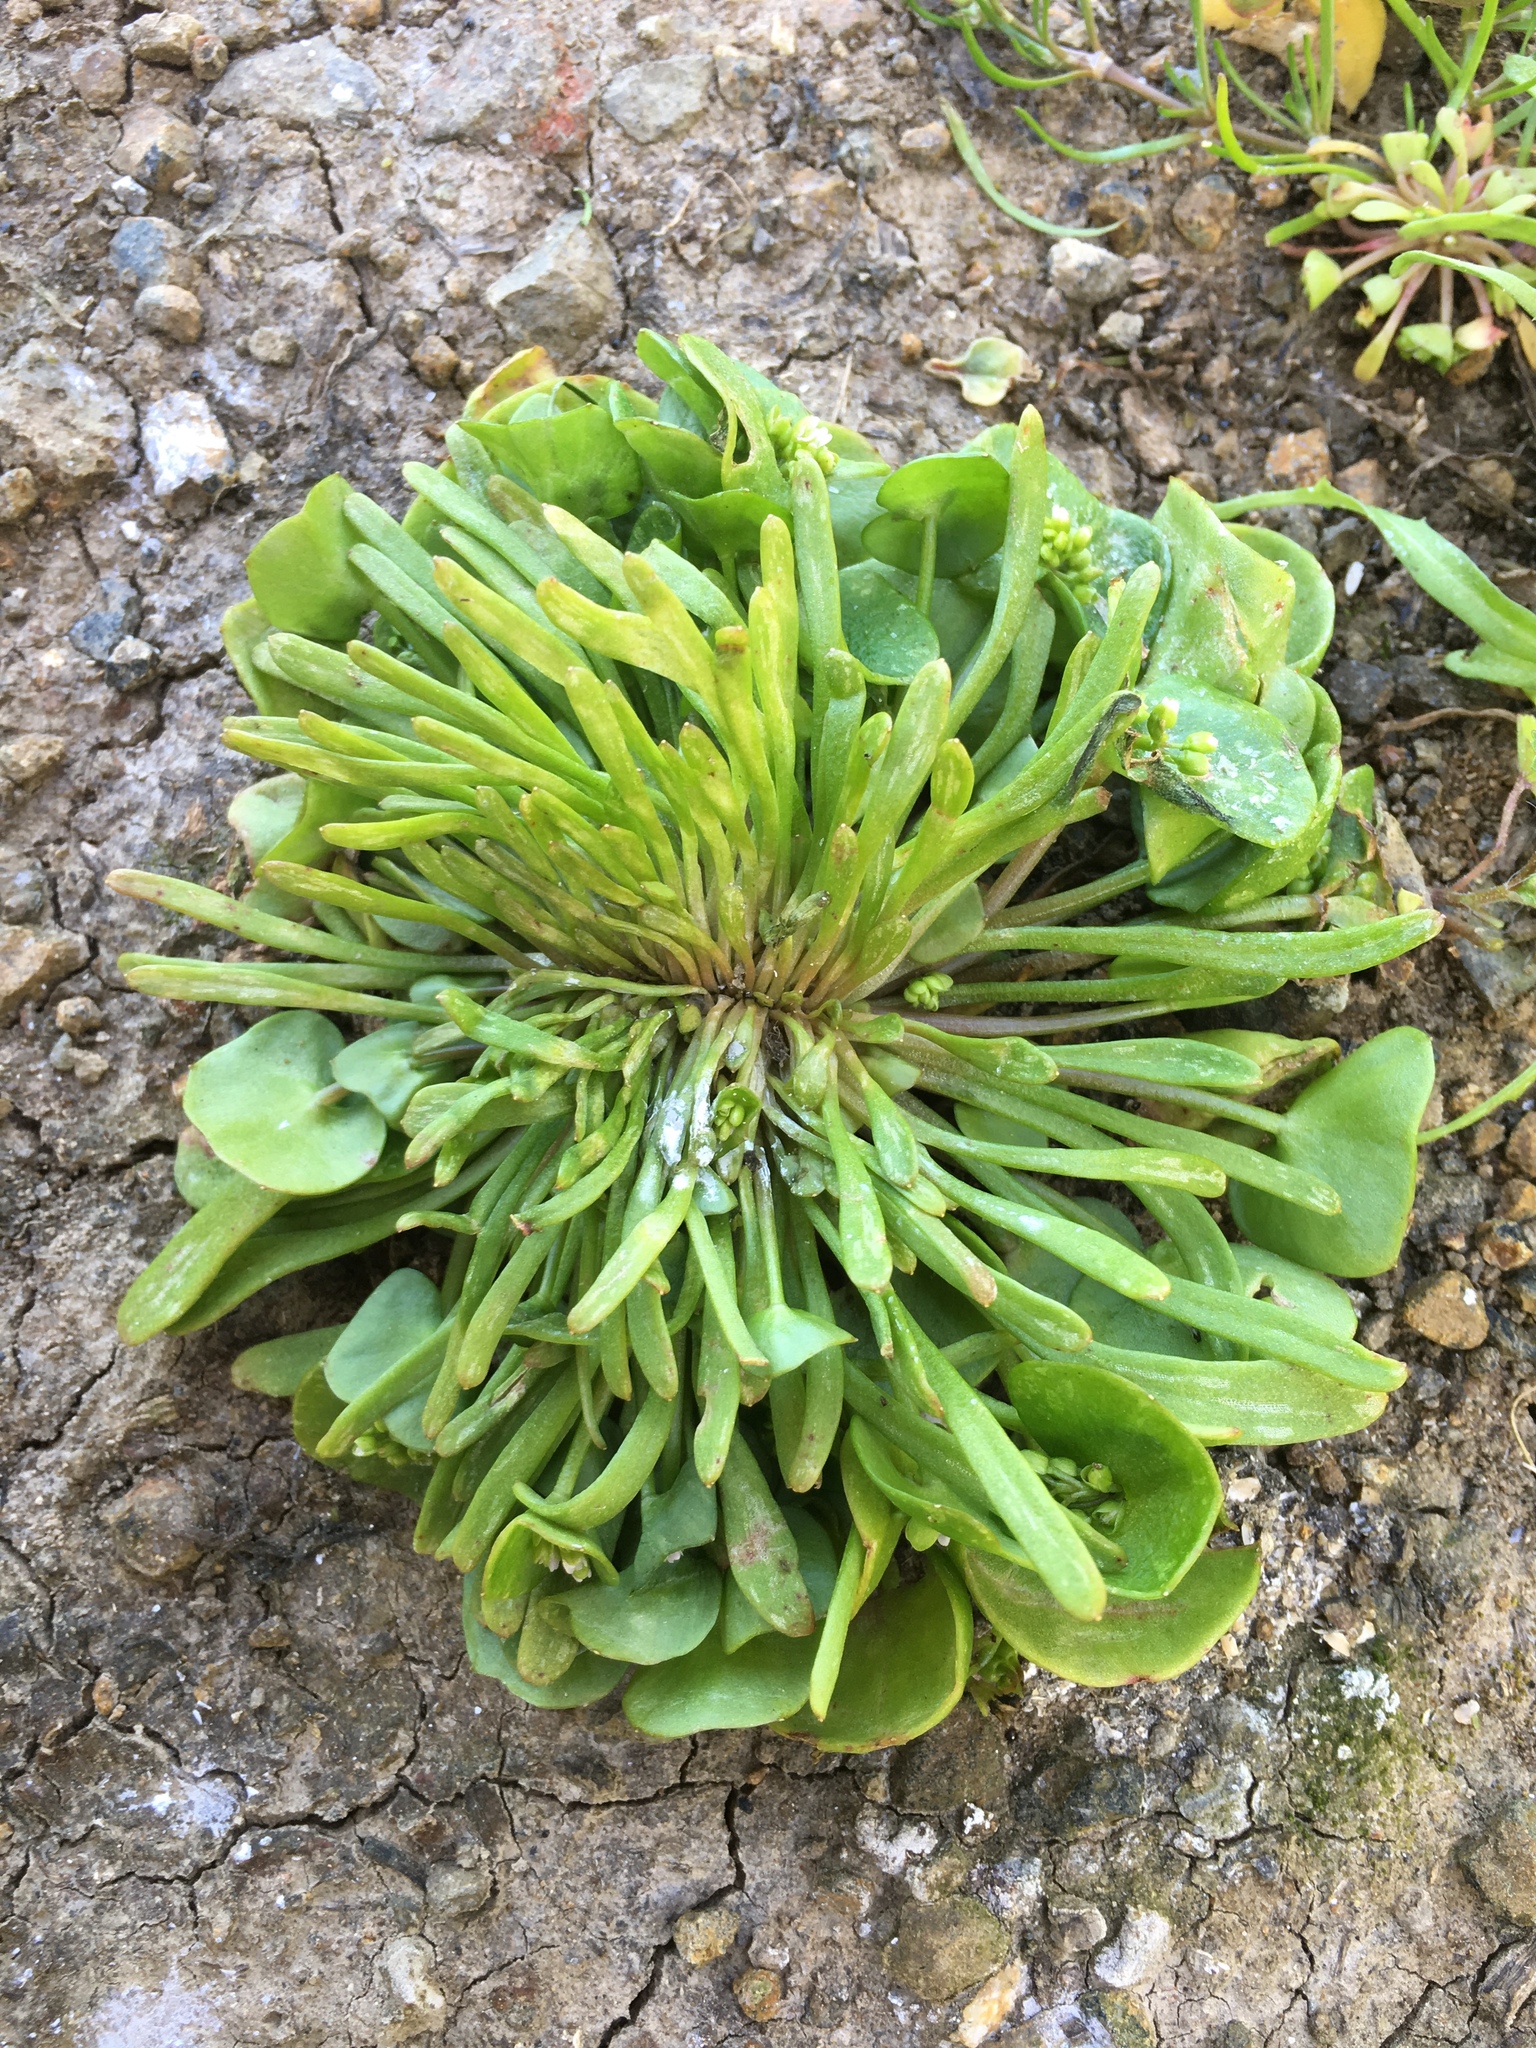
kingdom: Plantae
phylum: Tracheophyta
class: Magnoliopsida
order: Caryophyllales
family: Montiaceae
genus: Claytonia
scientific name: Claytonia parviflora
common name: Indian-lettuce
